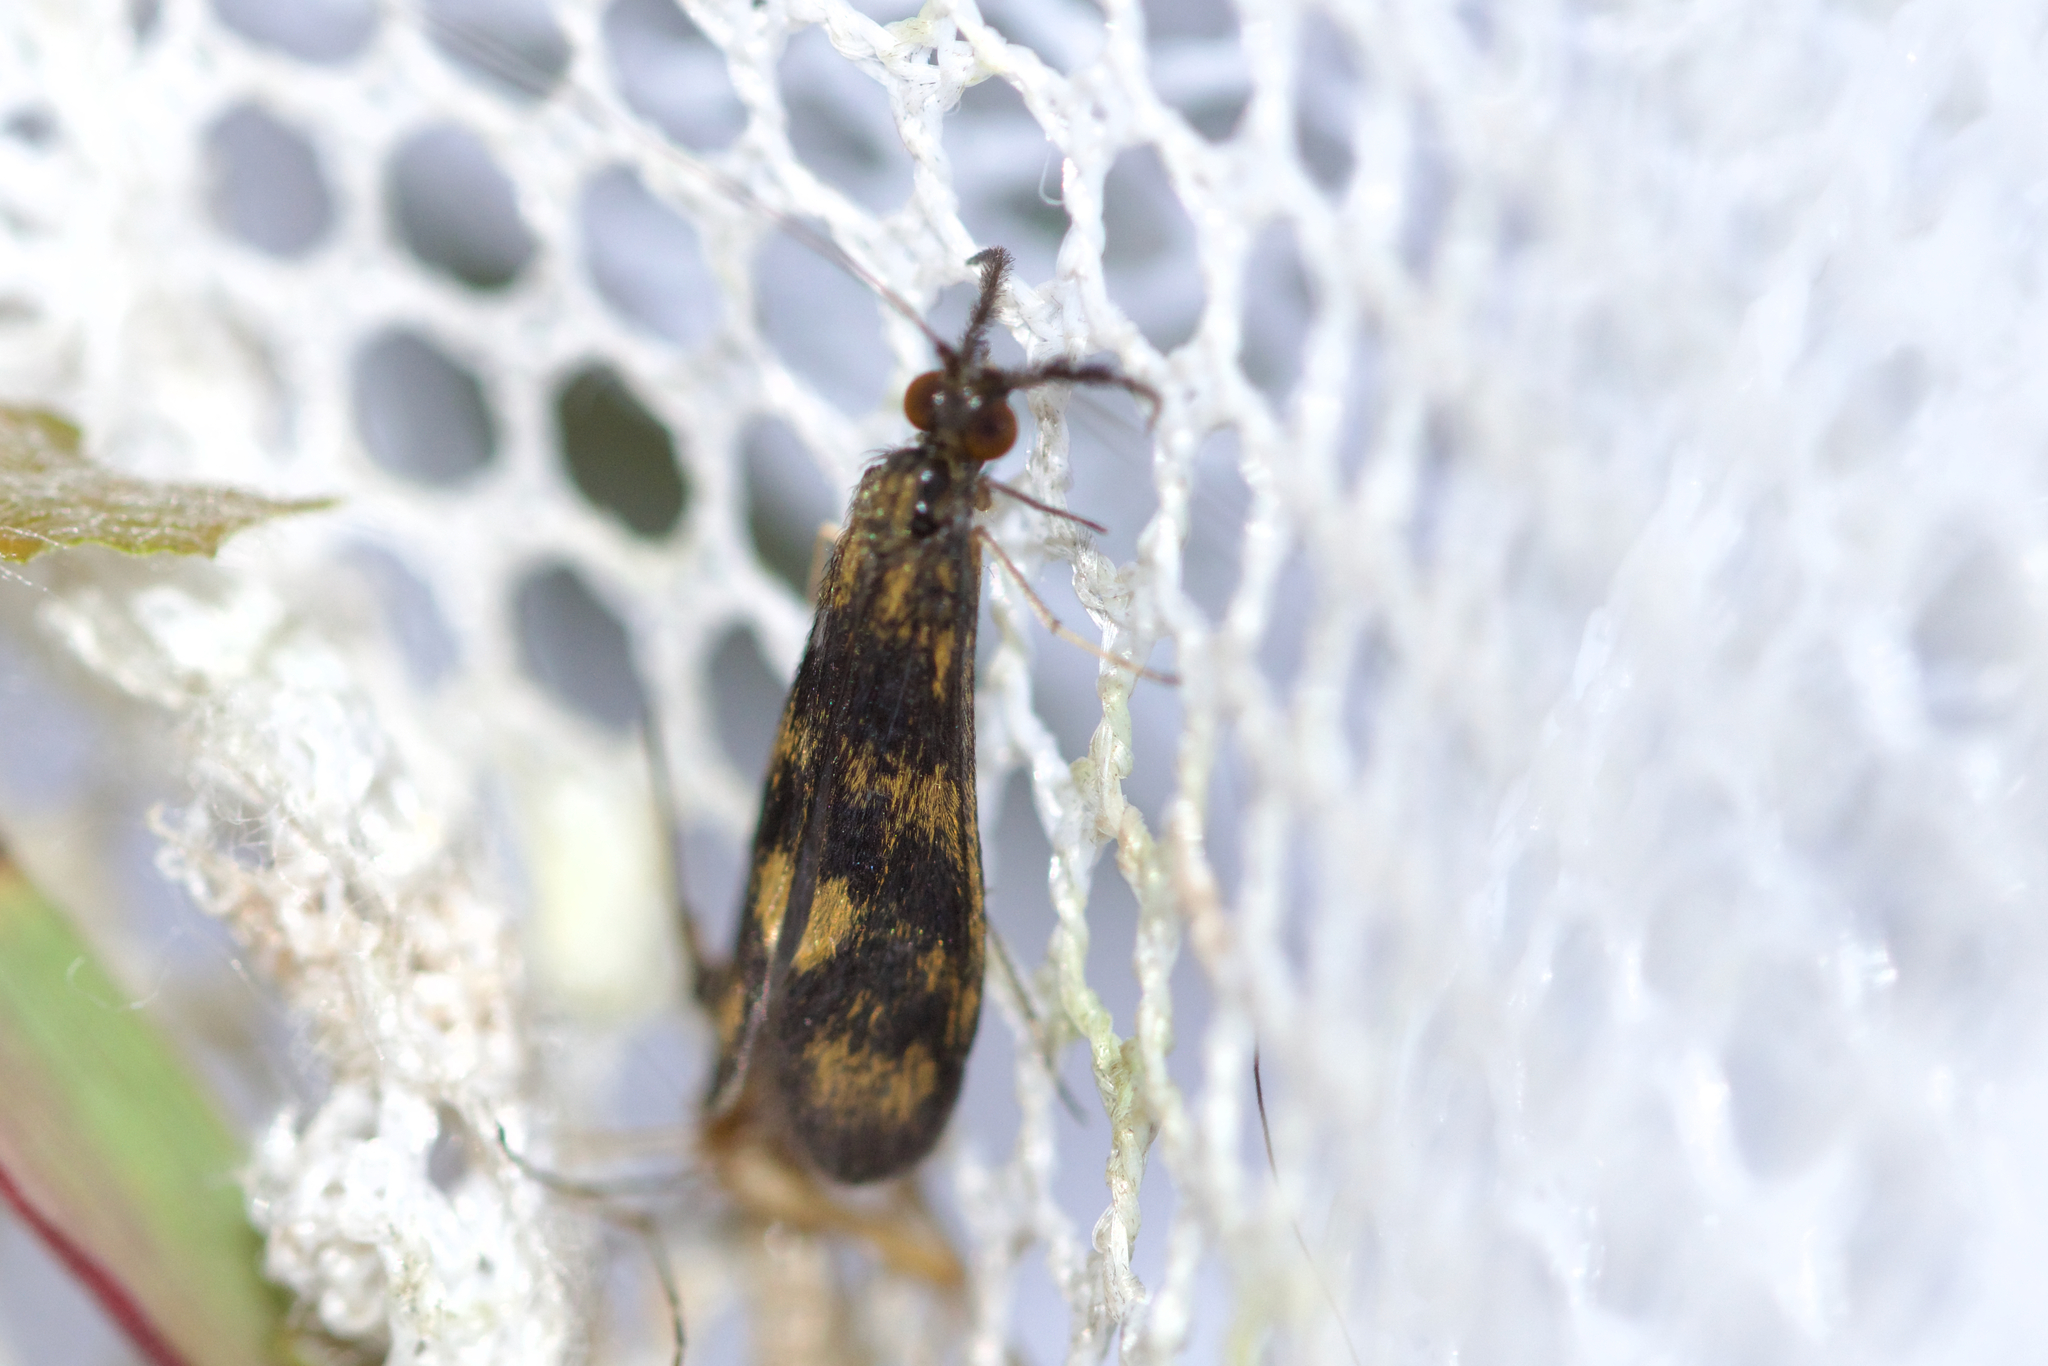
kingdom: Animalia
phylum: Arthropoda
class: Insecta
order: Trichoptera
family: Leptoceridae
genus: Mystacides
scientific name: Mystacides interjectus
